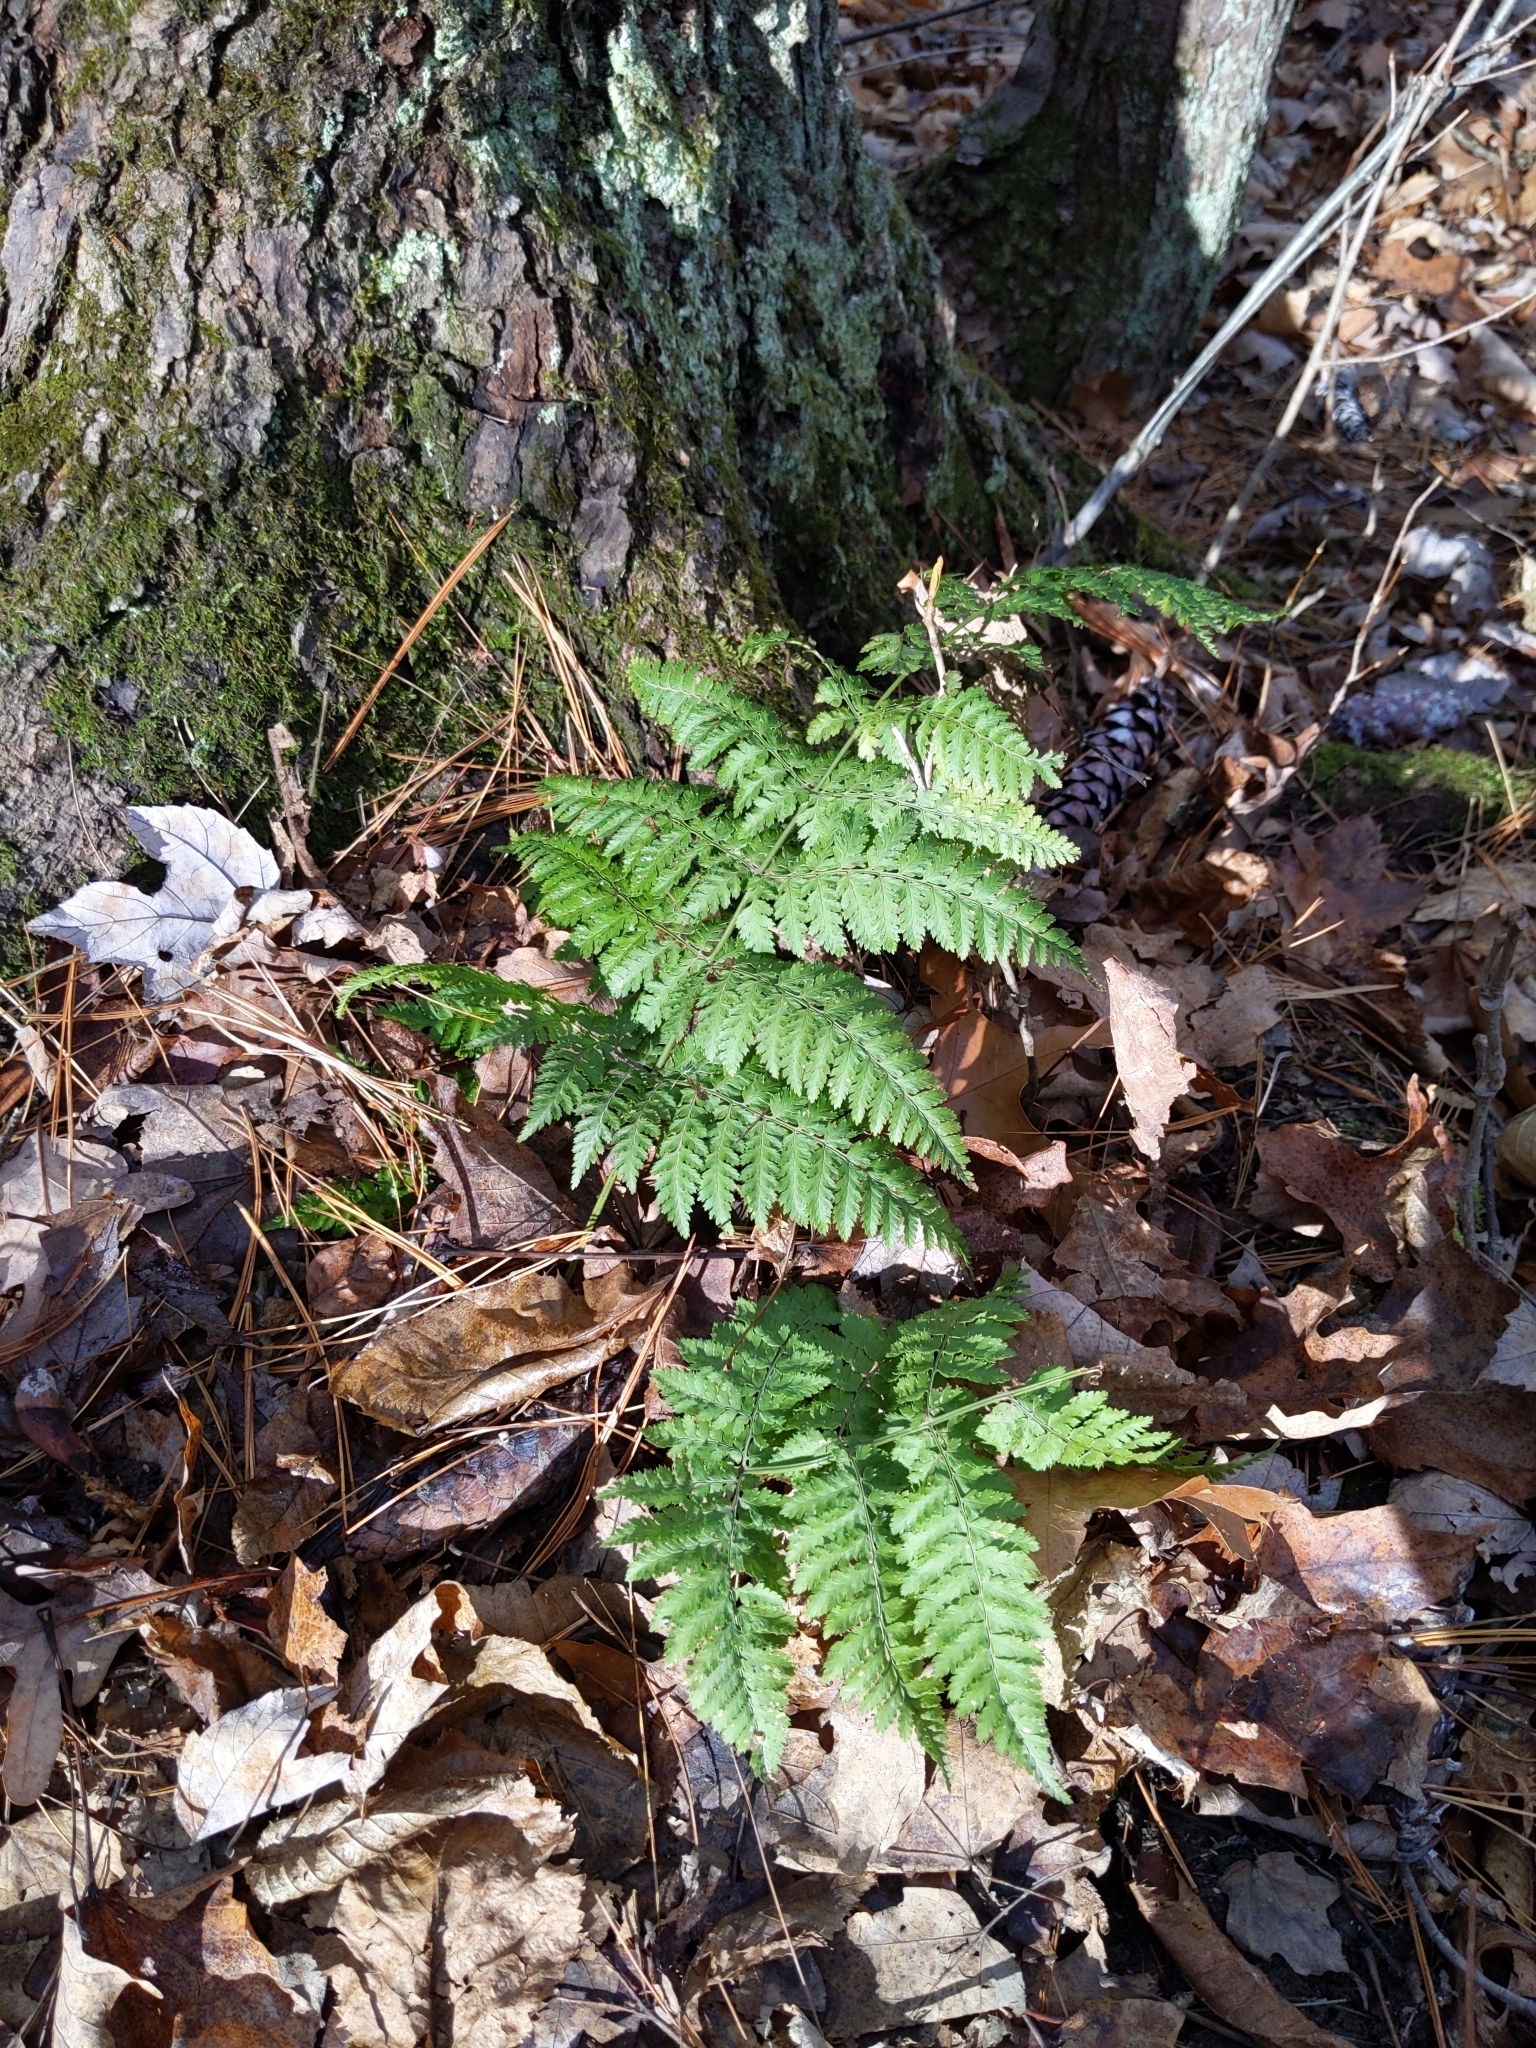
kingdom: Plantae
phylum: Tracheophyta
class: Polypodiopsida
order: Polypodiales
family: Dryopteridaceae
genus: Dryopteris
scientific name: Dryopteris intermedia
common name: Evergreen wood fern
